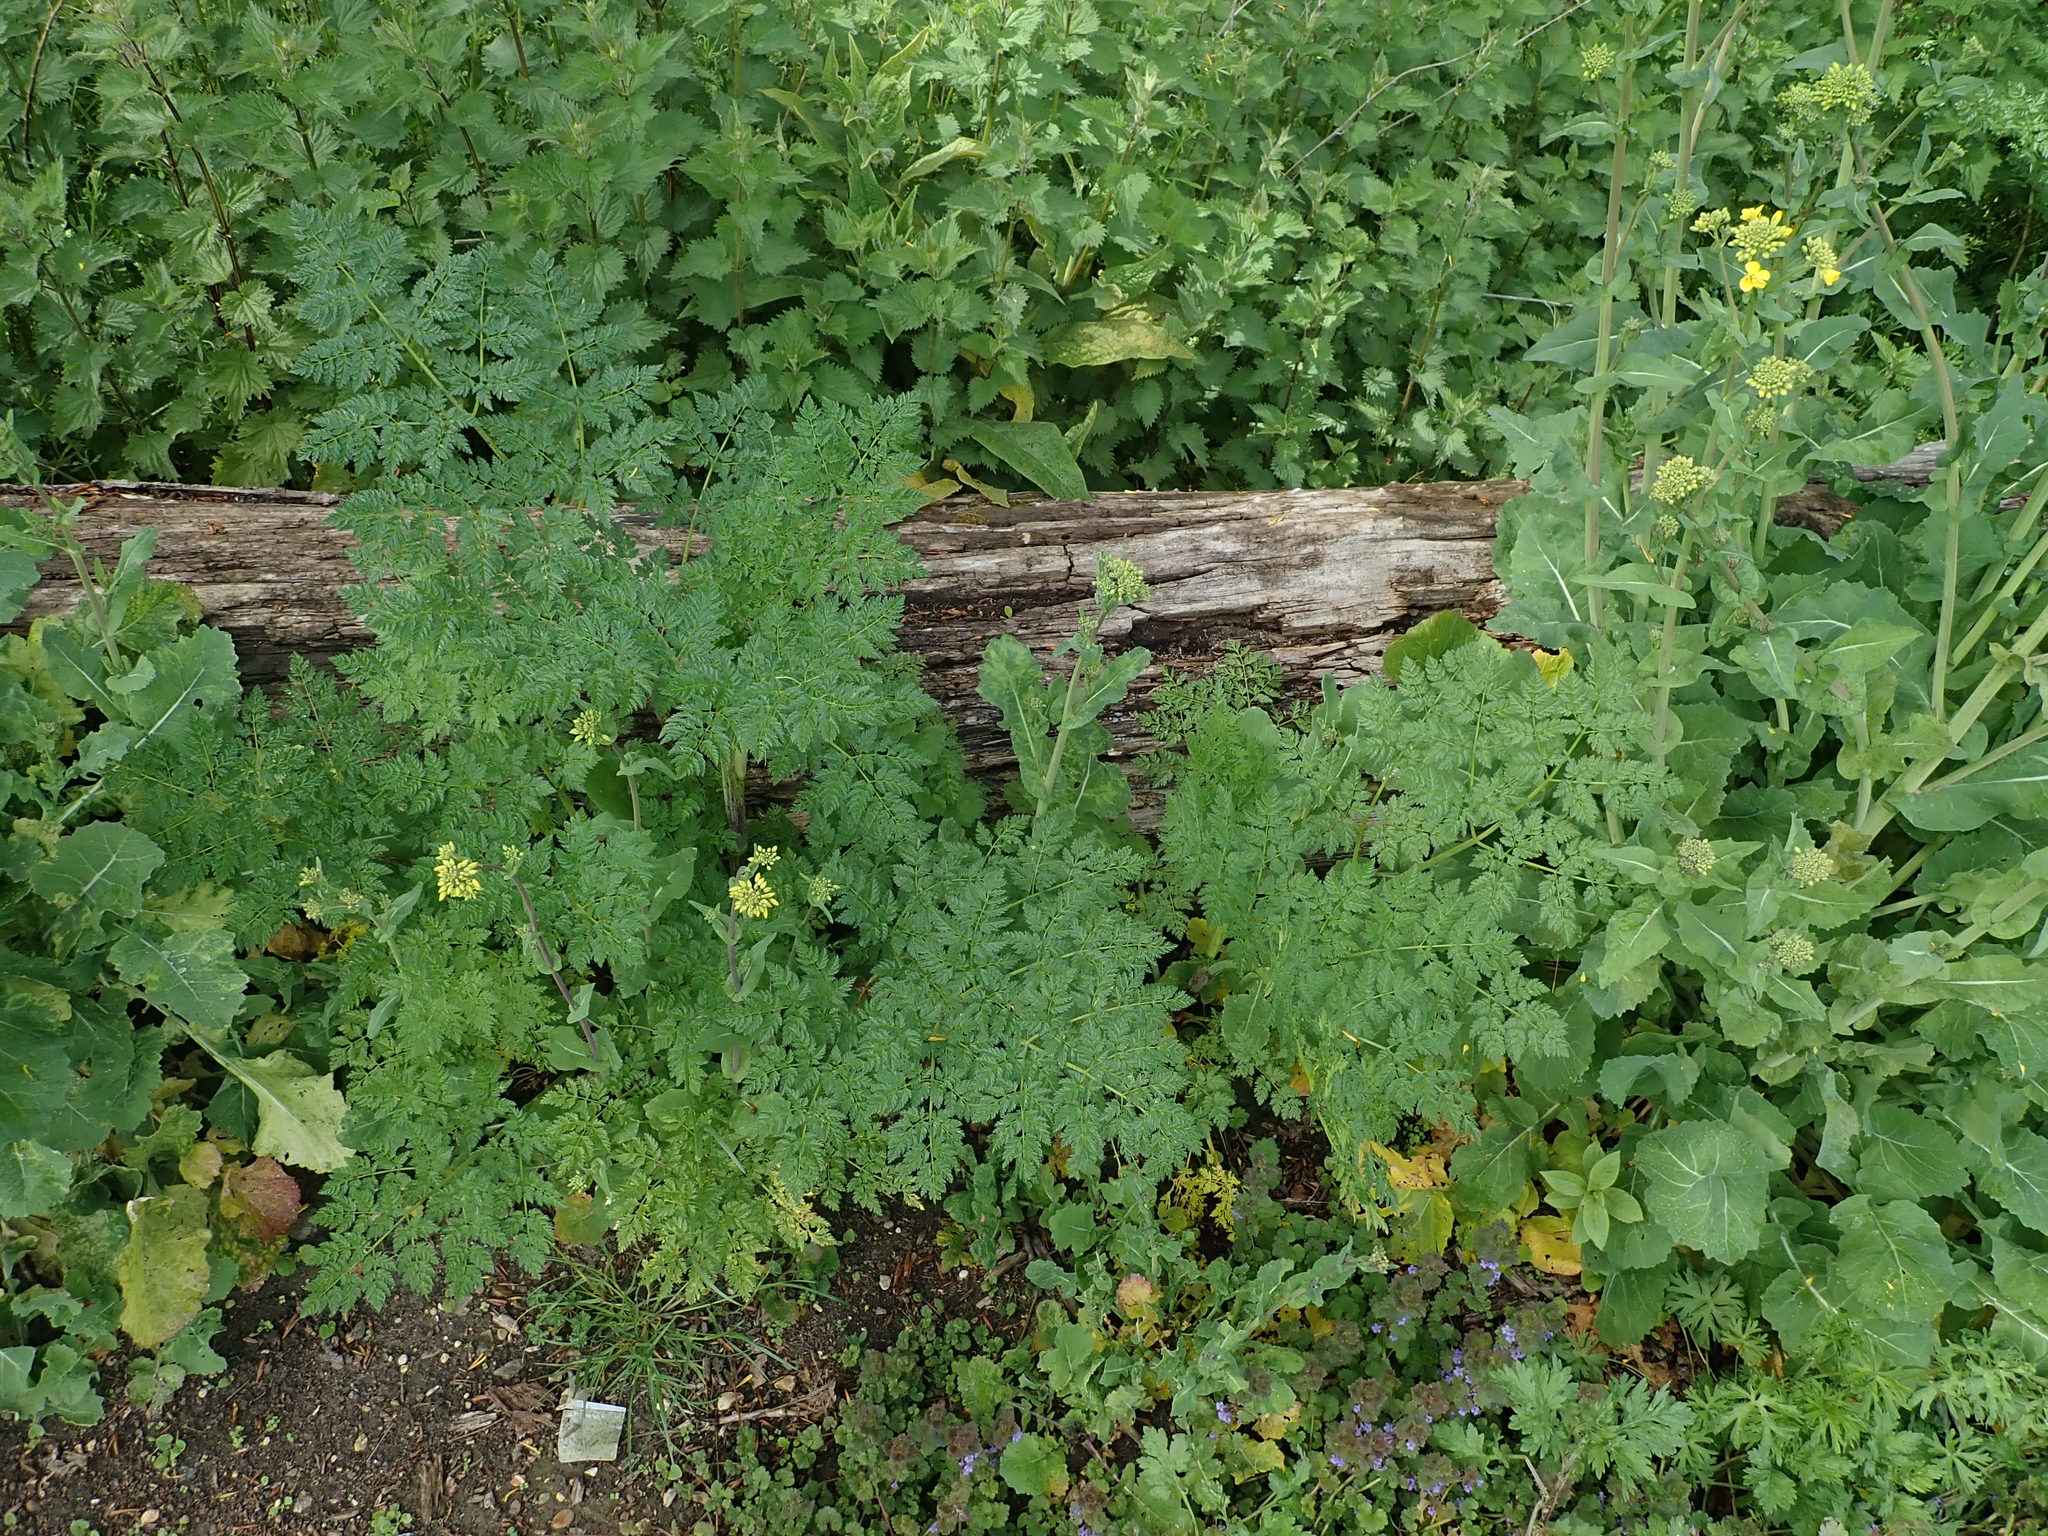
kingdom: Plantae
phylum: Tracheophyta
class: Magnoliopsida
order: Apiales
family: Apiaceae
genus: Conium
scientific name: Conium maculatum
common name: Hemlock
